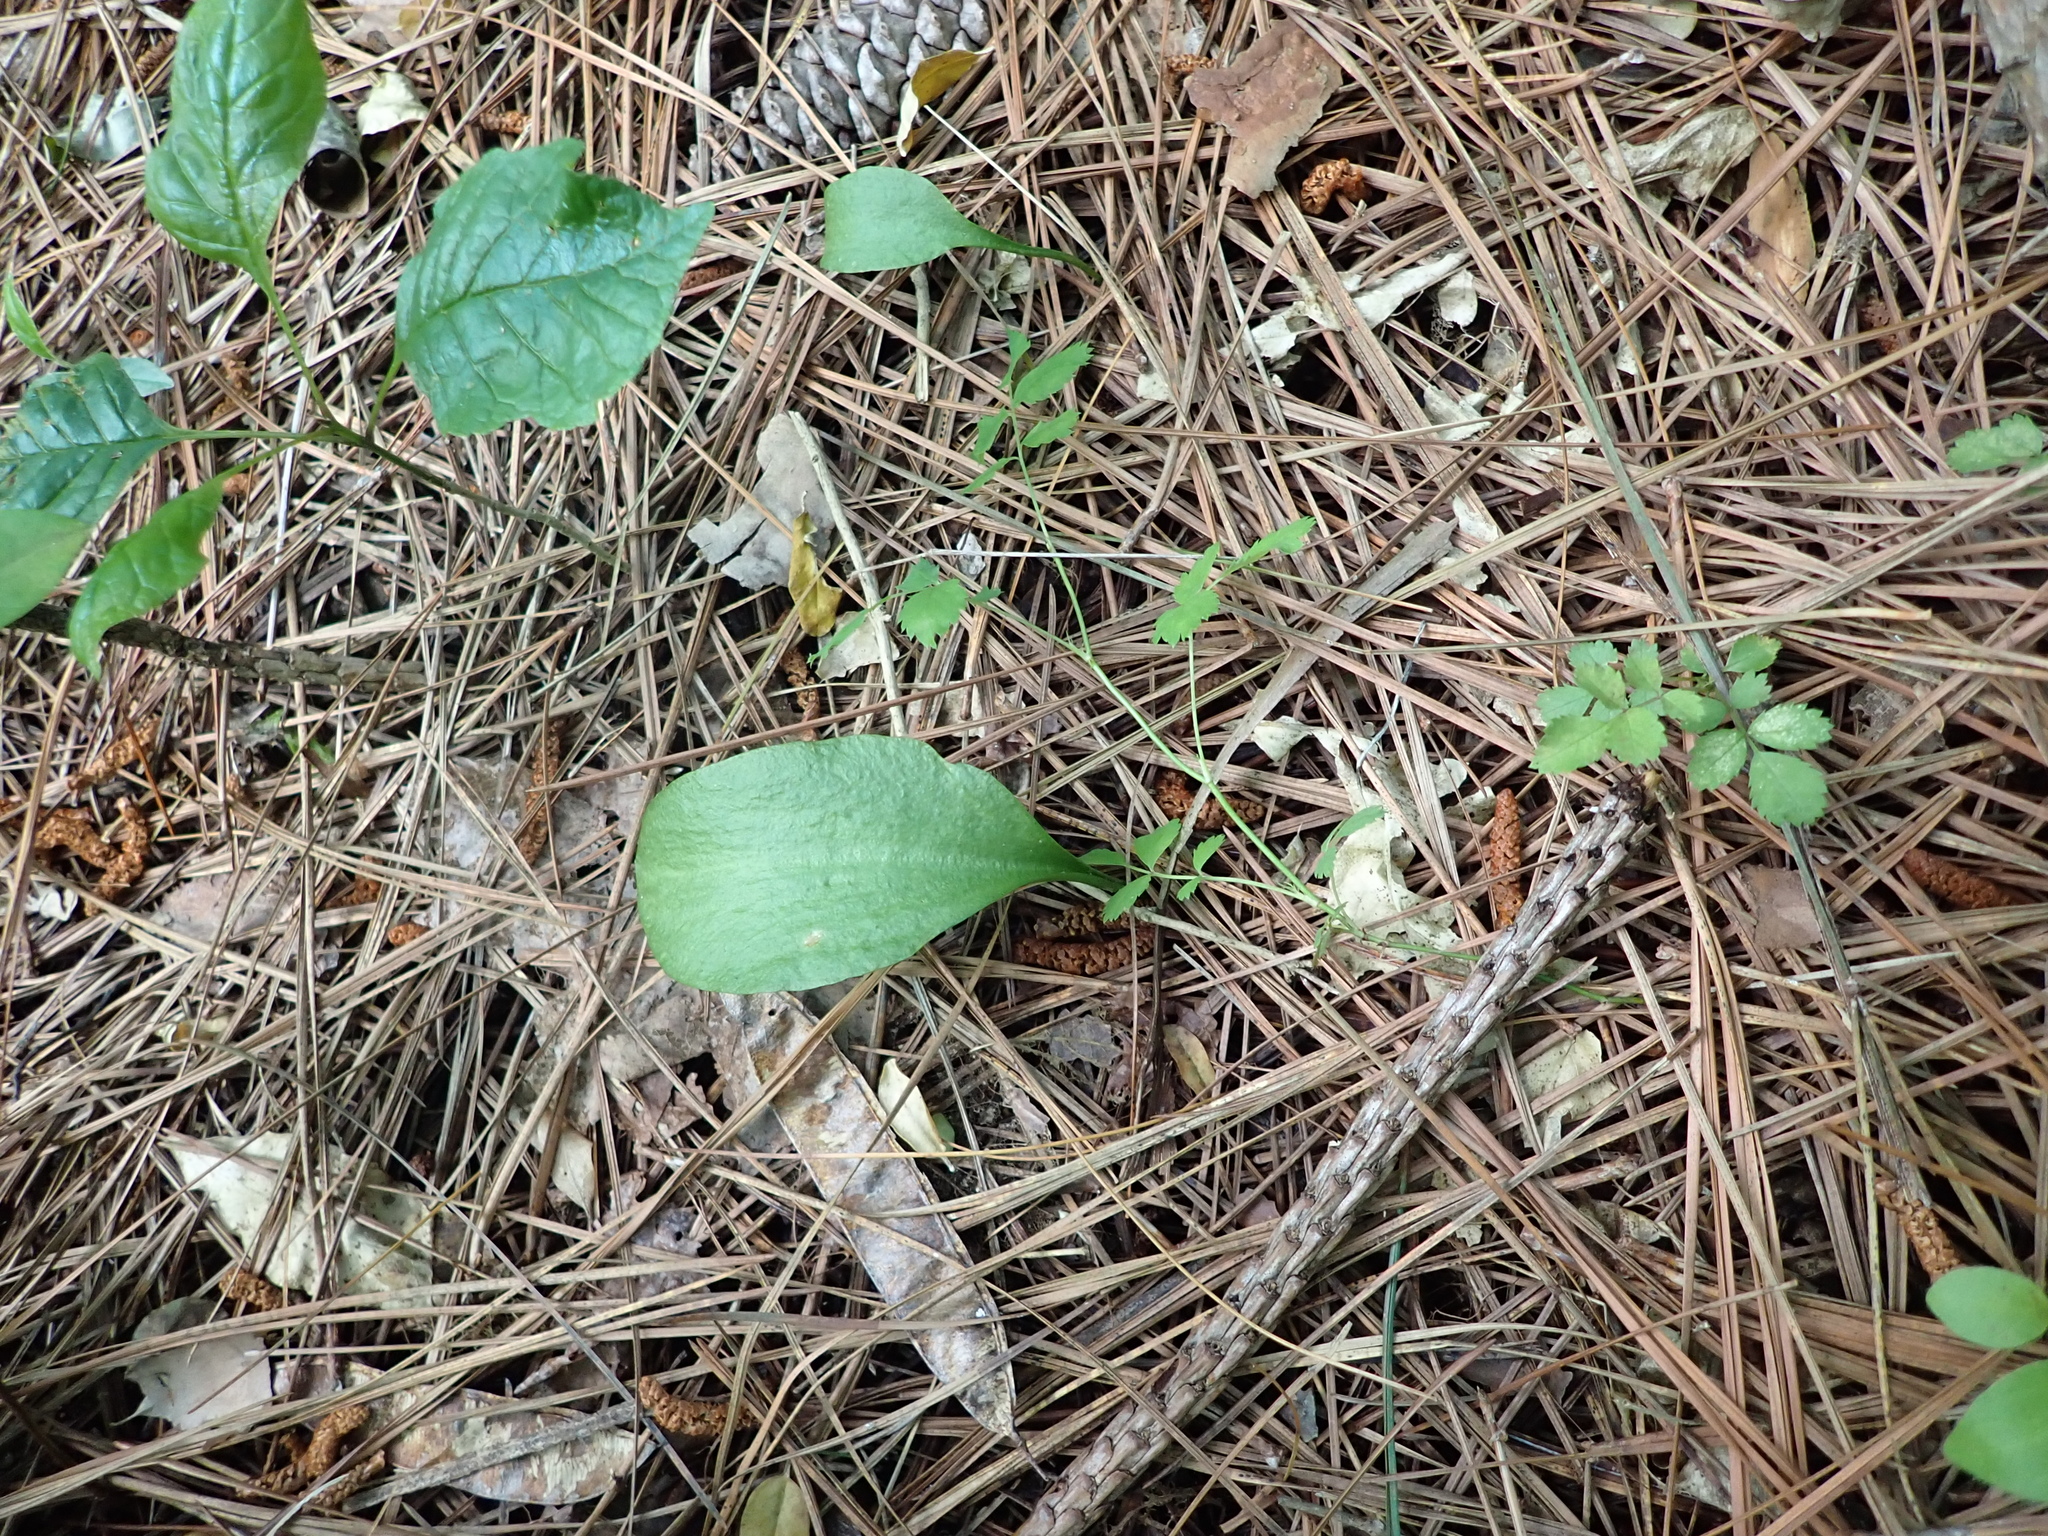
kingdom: Plantae
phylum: Tracheophyta
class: Polypodiopsida
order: Ophioglossales
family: Ophioglossaceae
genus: Ophioglossum
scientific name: Ophioglossum vulgatum
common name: Adder's-tongue
